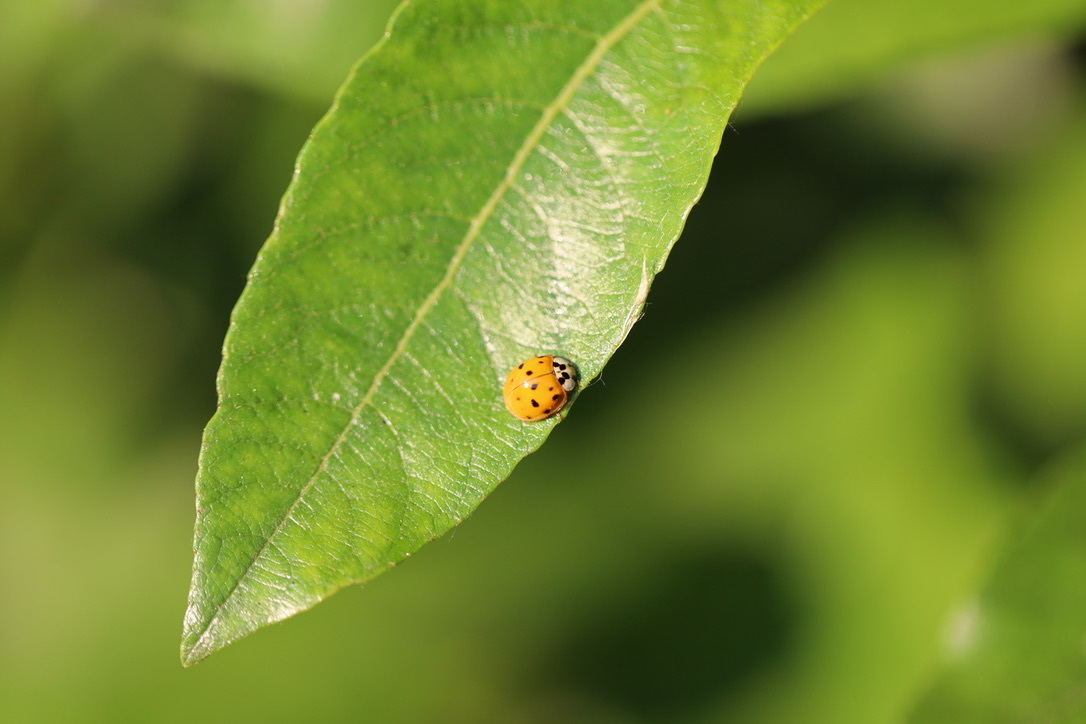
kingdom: Animalia
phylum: Arthropoda
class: Insecta
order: Coleoptera
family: Coccinellidae
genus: Harmonia
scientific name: Harmonia axyridis
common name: Harlequin ladybird
